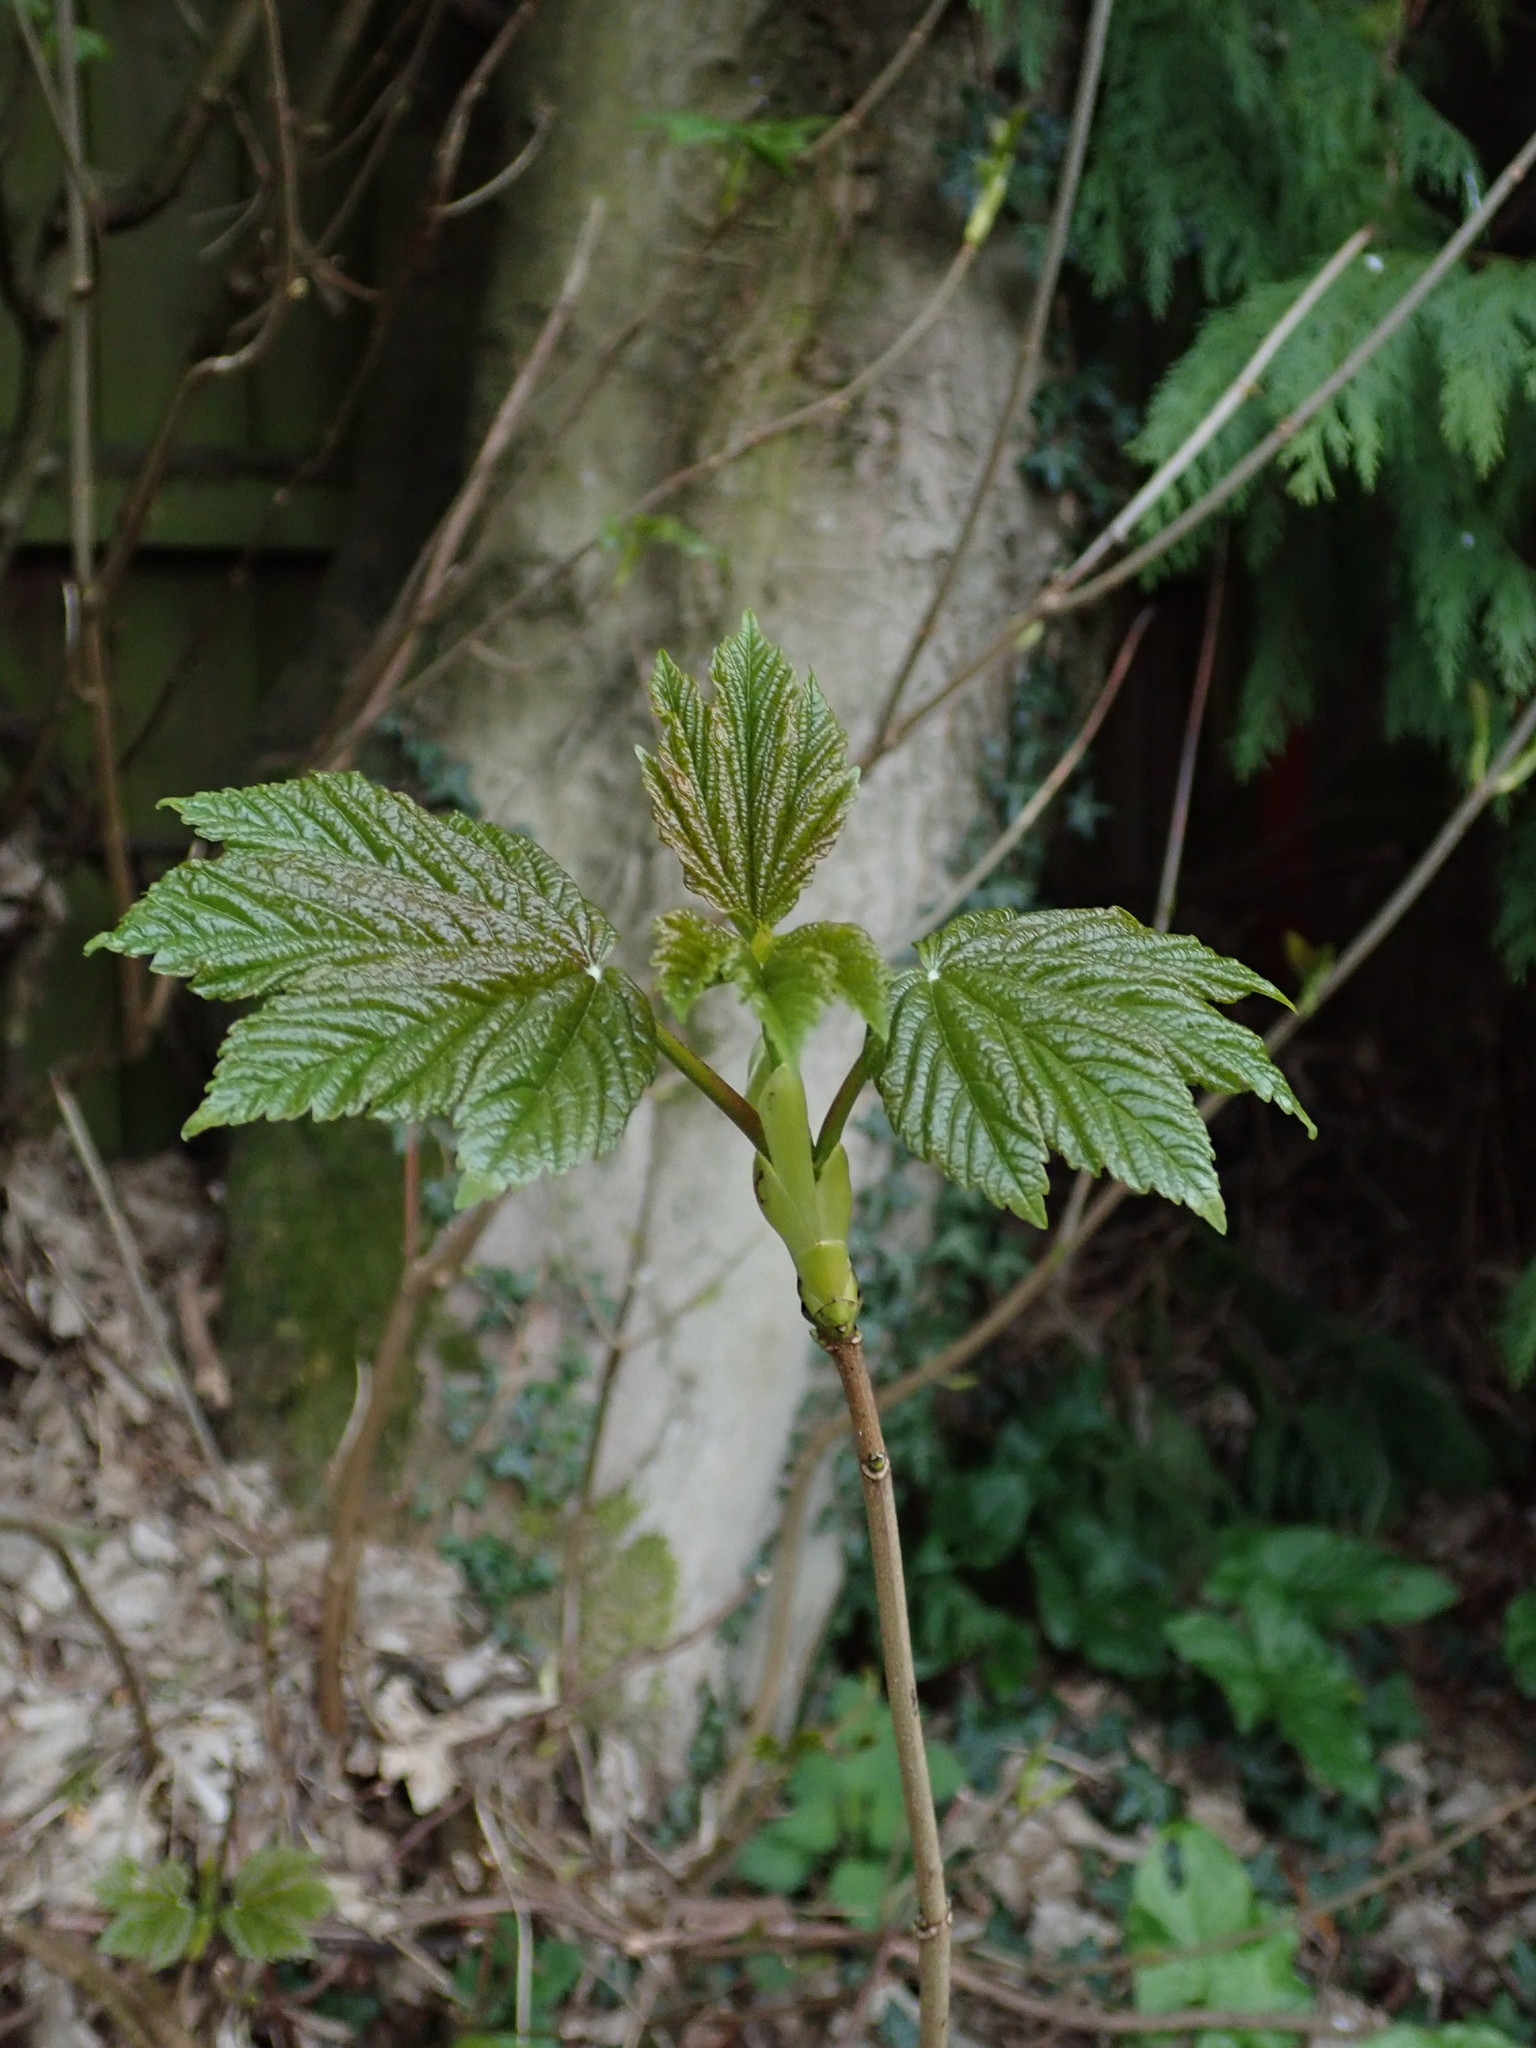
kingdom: Plantae
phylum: Tracheophyta
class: Magnoliopsida
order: Sapindales
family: Sapindaceae
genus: Acer
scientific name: Acer pseudoplatanus
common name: Sycamore
